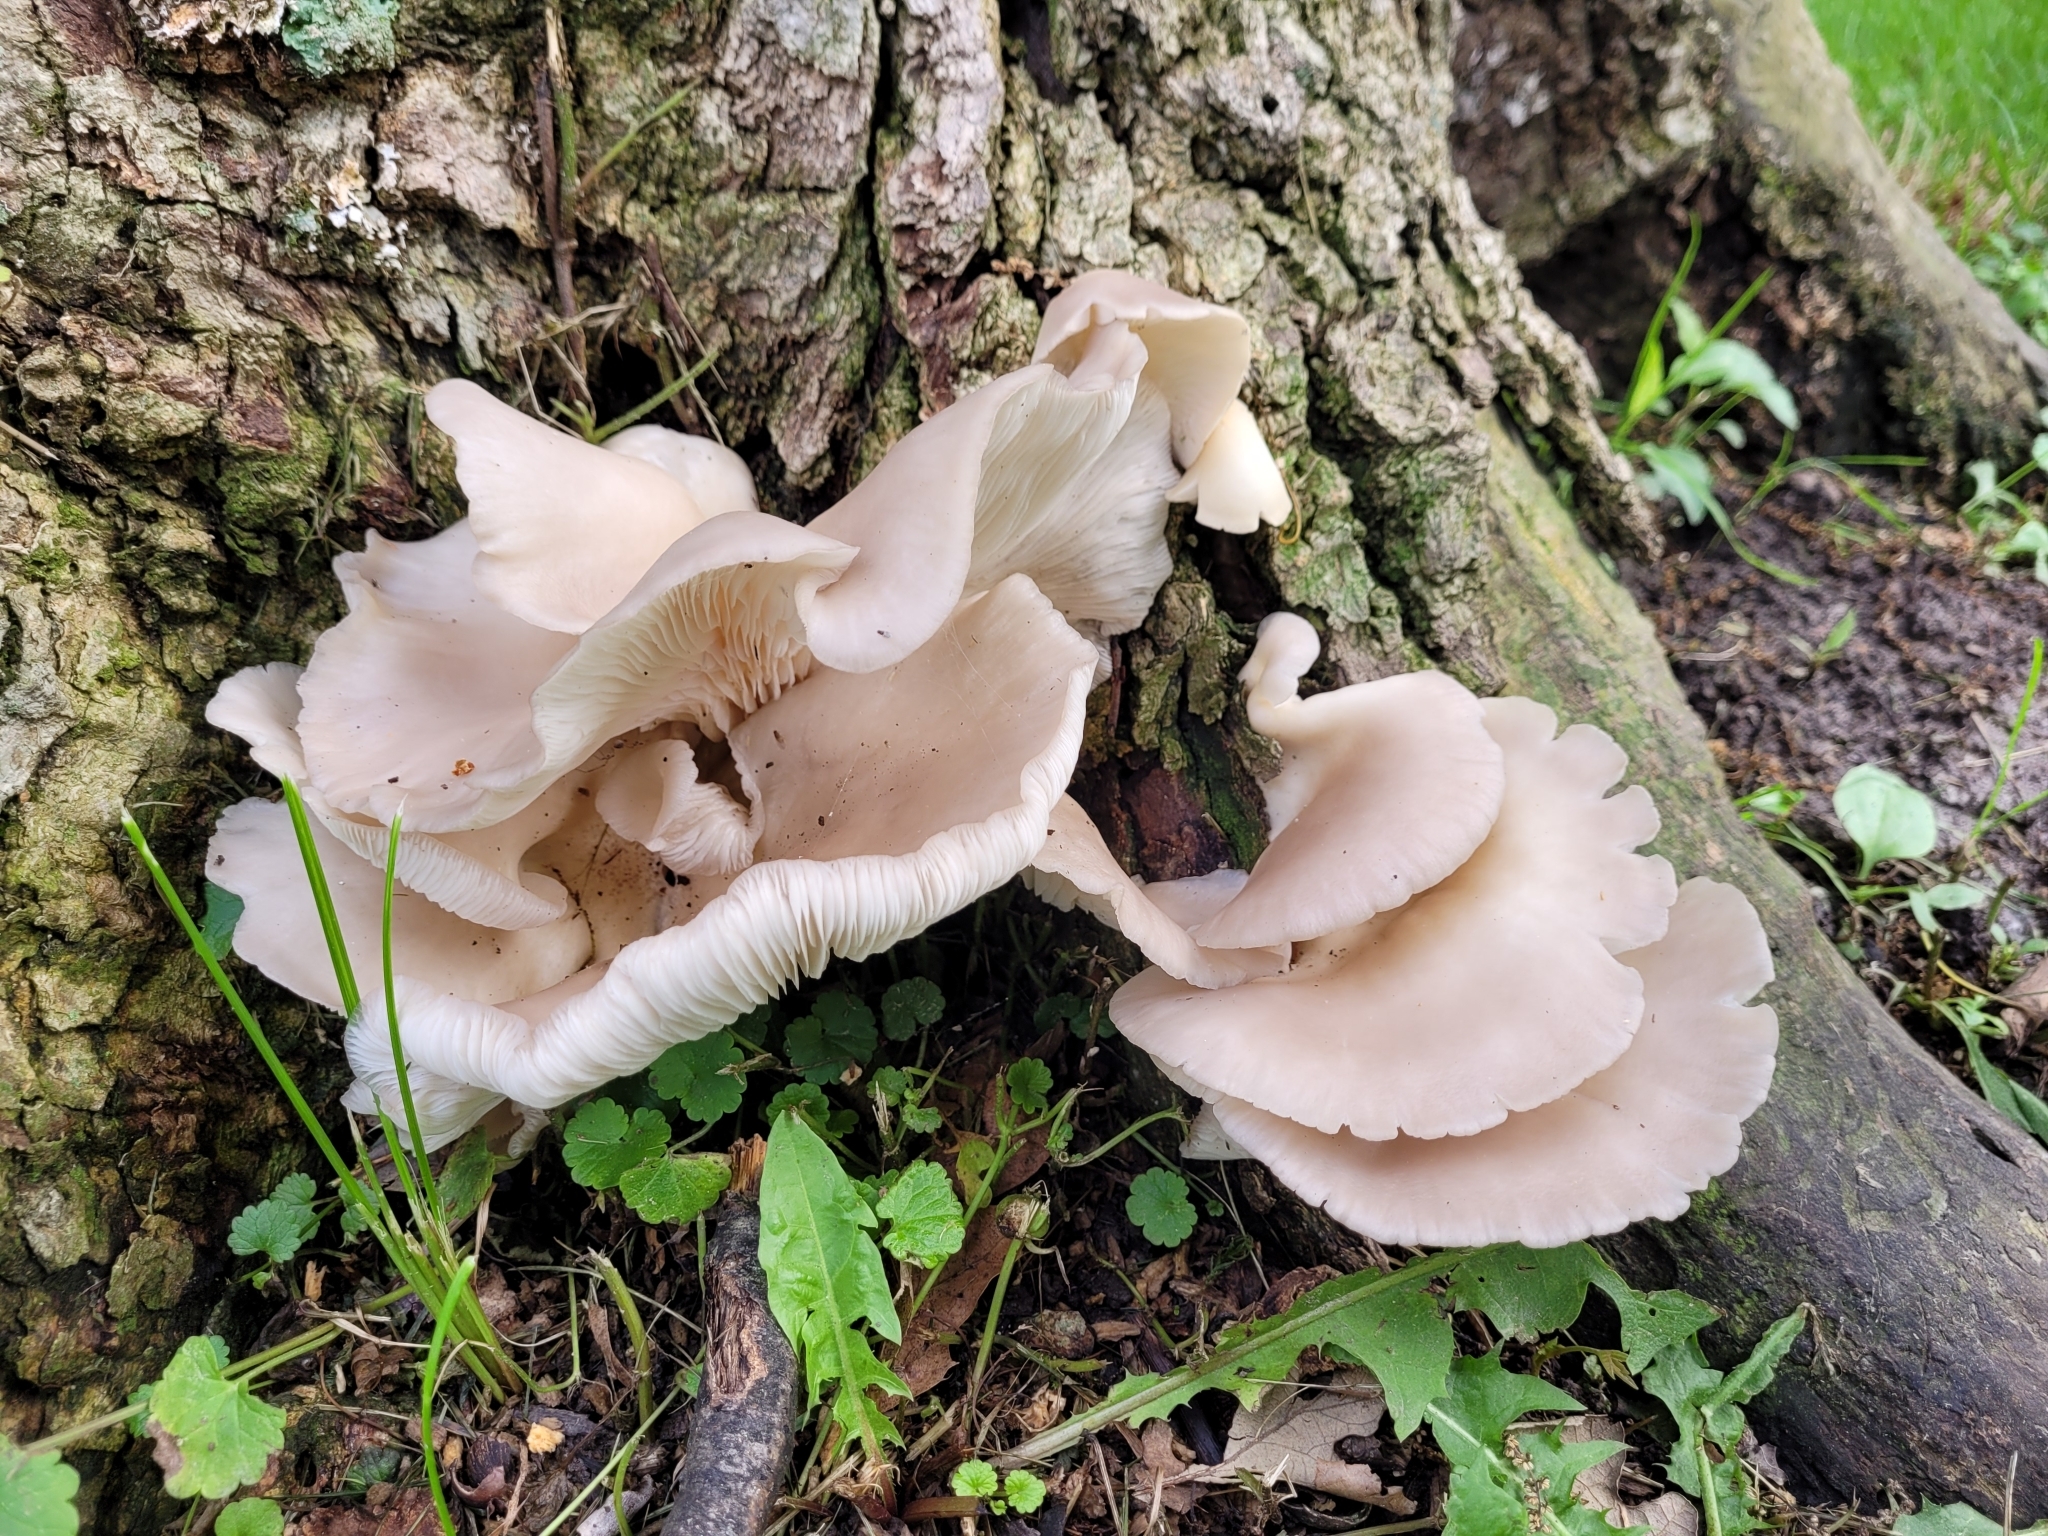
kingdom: Fungi
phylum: Basidiomycota
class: Agaricomycetes
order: Agaricales
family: Pleurotaceae
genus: Pleurotus
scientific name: Pleurotus pulmonarius
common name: Pale oyster
